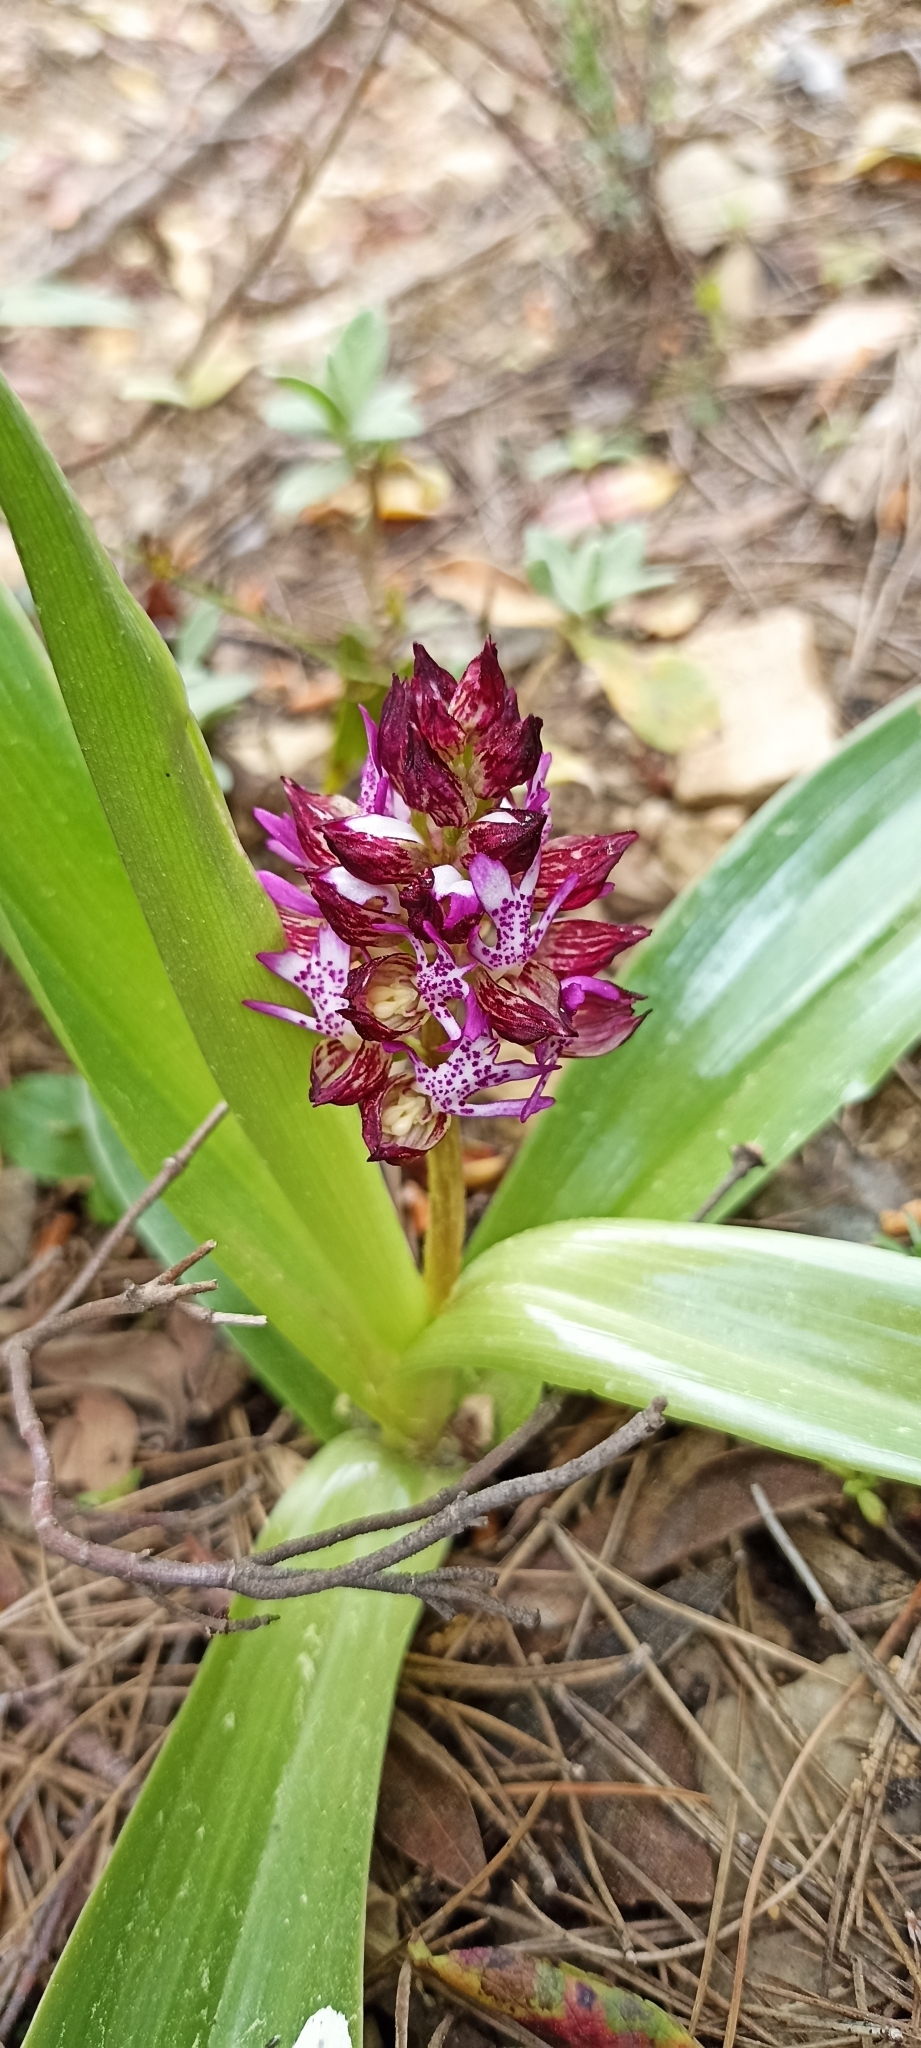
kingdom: Plantae
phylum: Tracheophyta
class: Liliopsida
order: Asparagales
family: Orchidaceae
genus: Orchis
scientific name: Orchis purpurea
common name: Lady orchid
